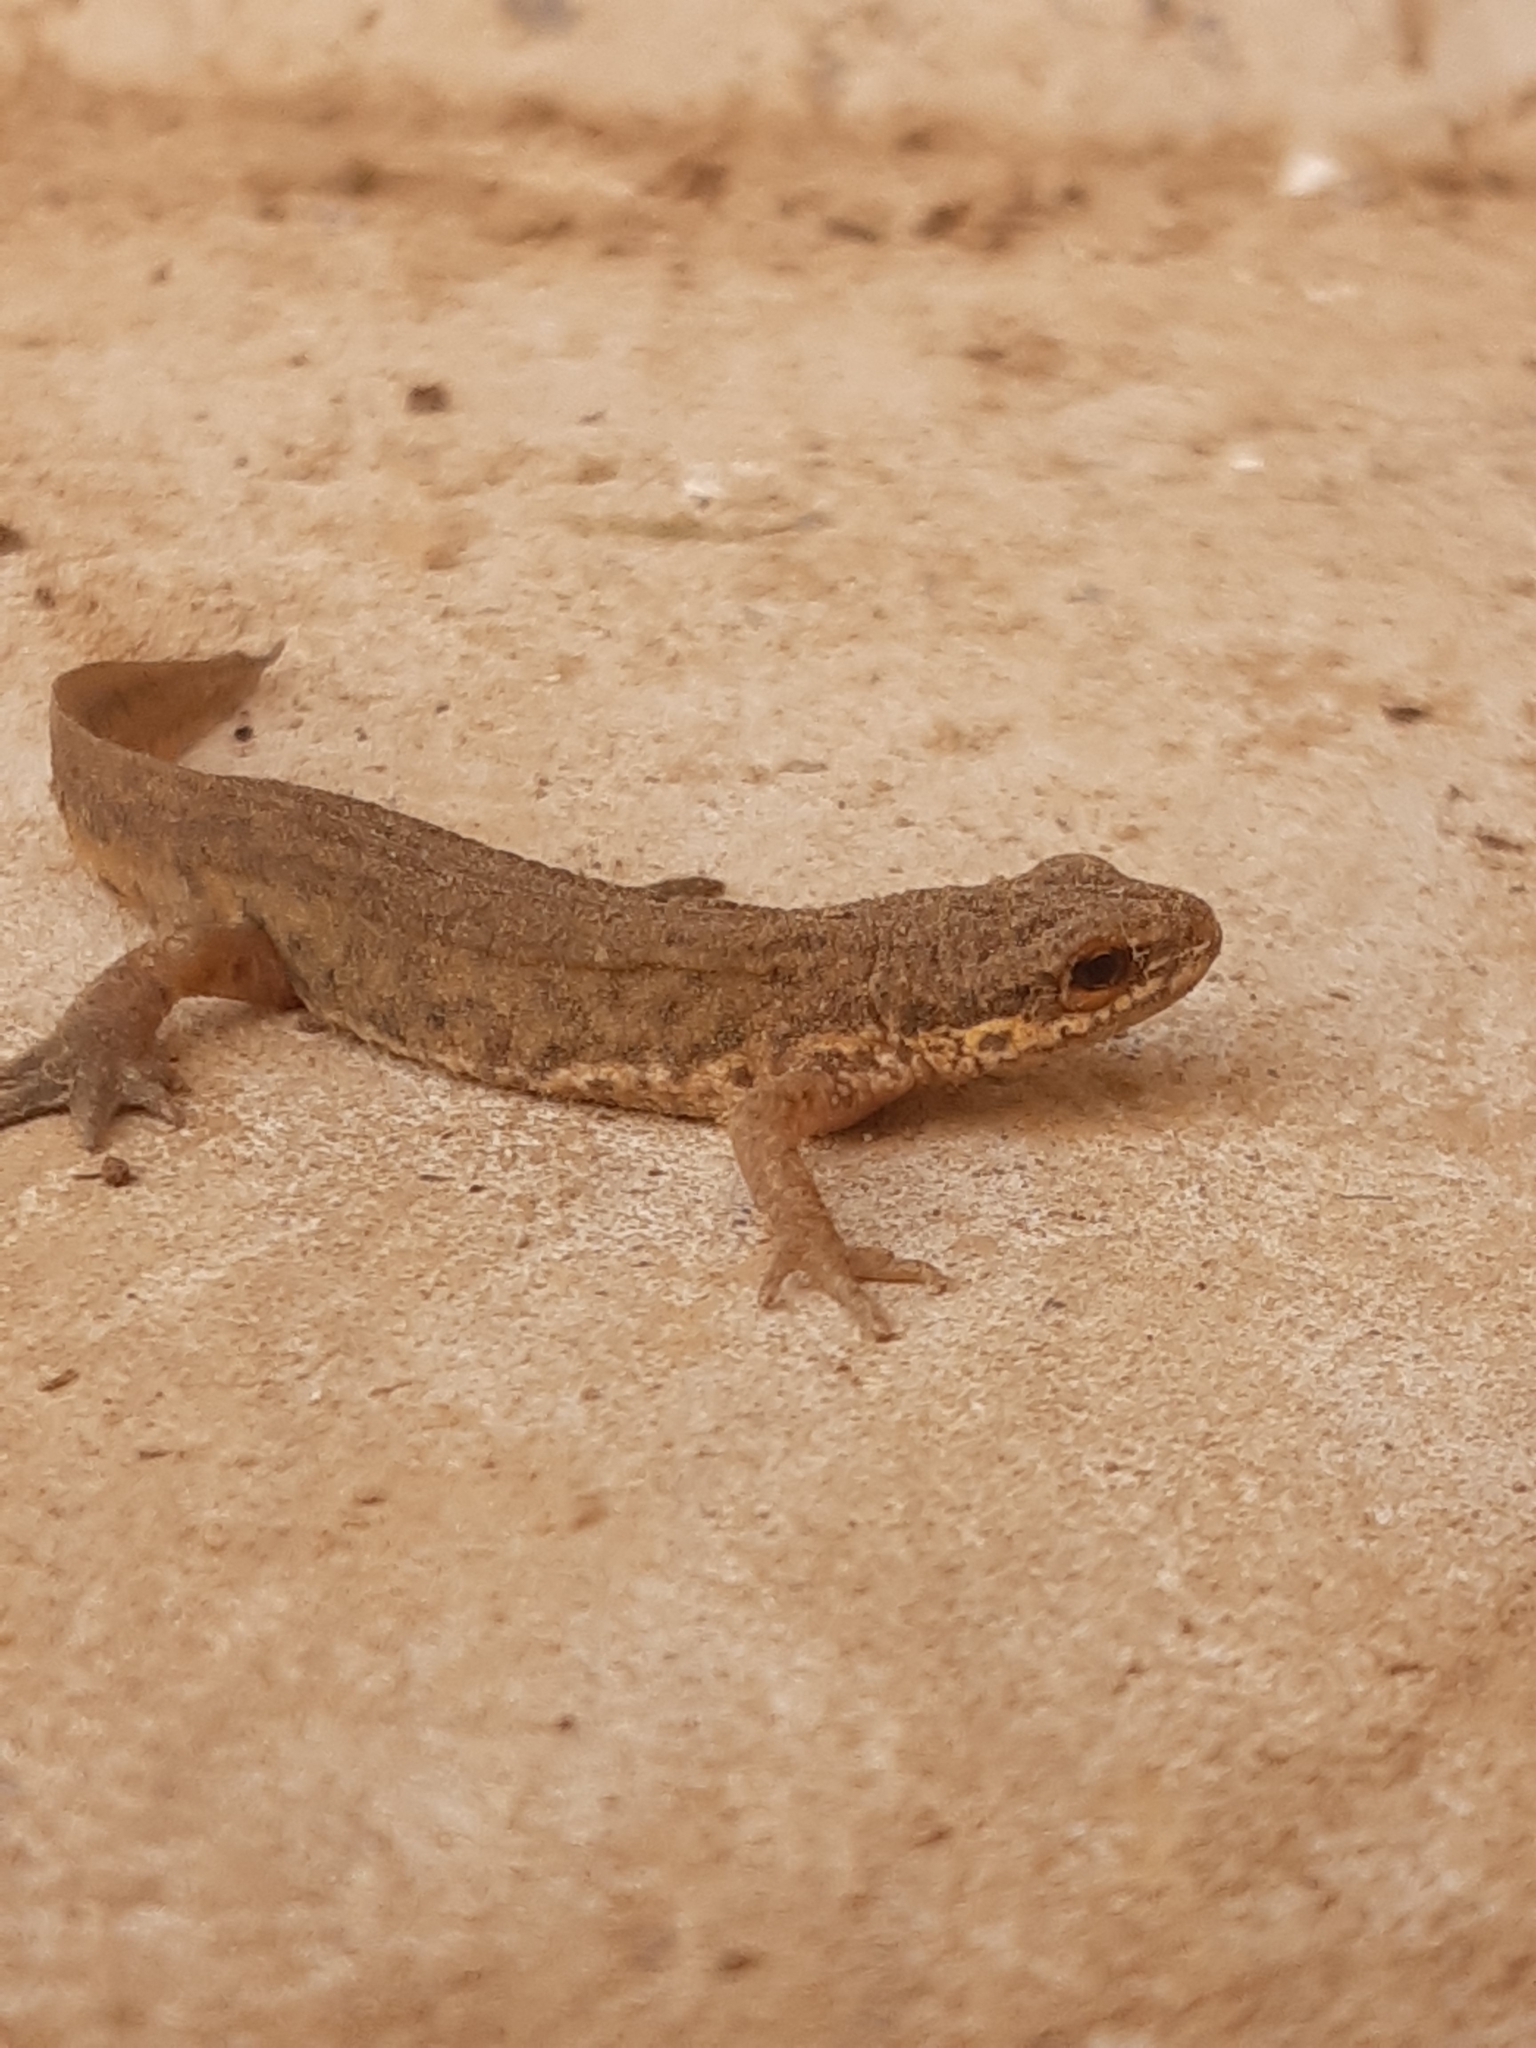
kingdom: Animalia
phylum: Chordata
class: Amphibia
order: Caudata
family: Salamandridae
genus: Lissotriton
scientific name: Lissotriton helveticus
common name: Palmate newt
